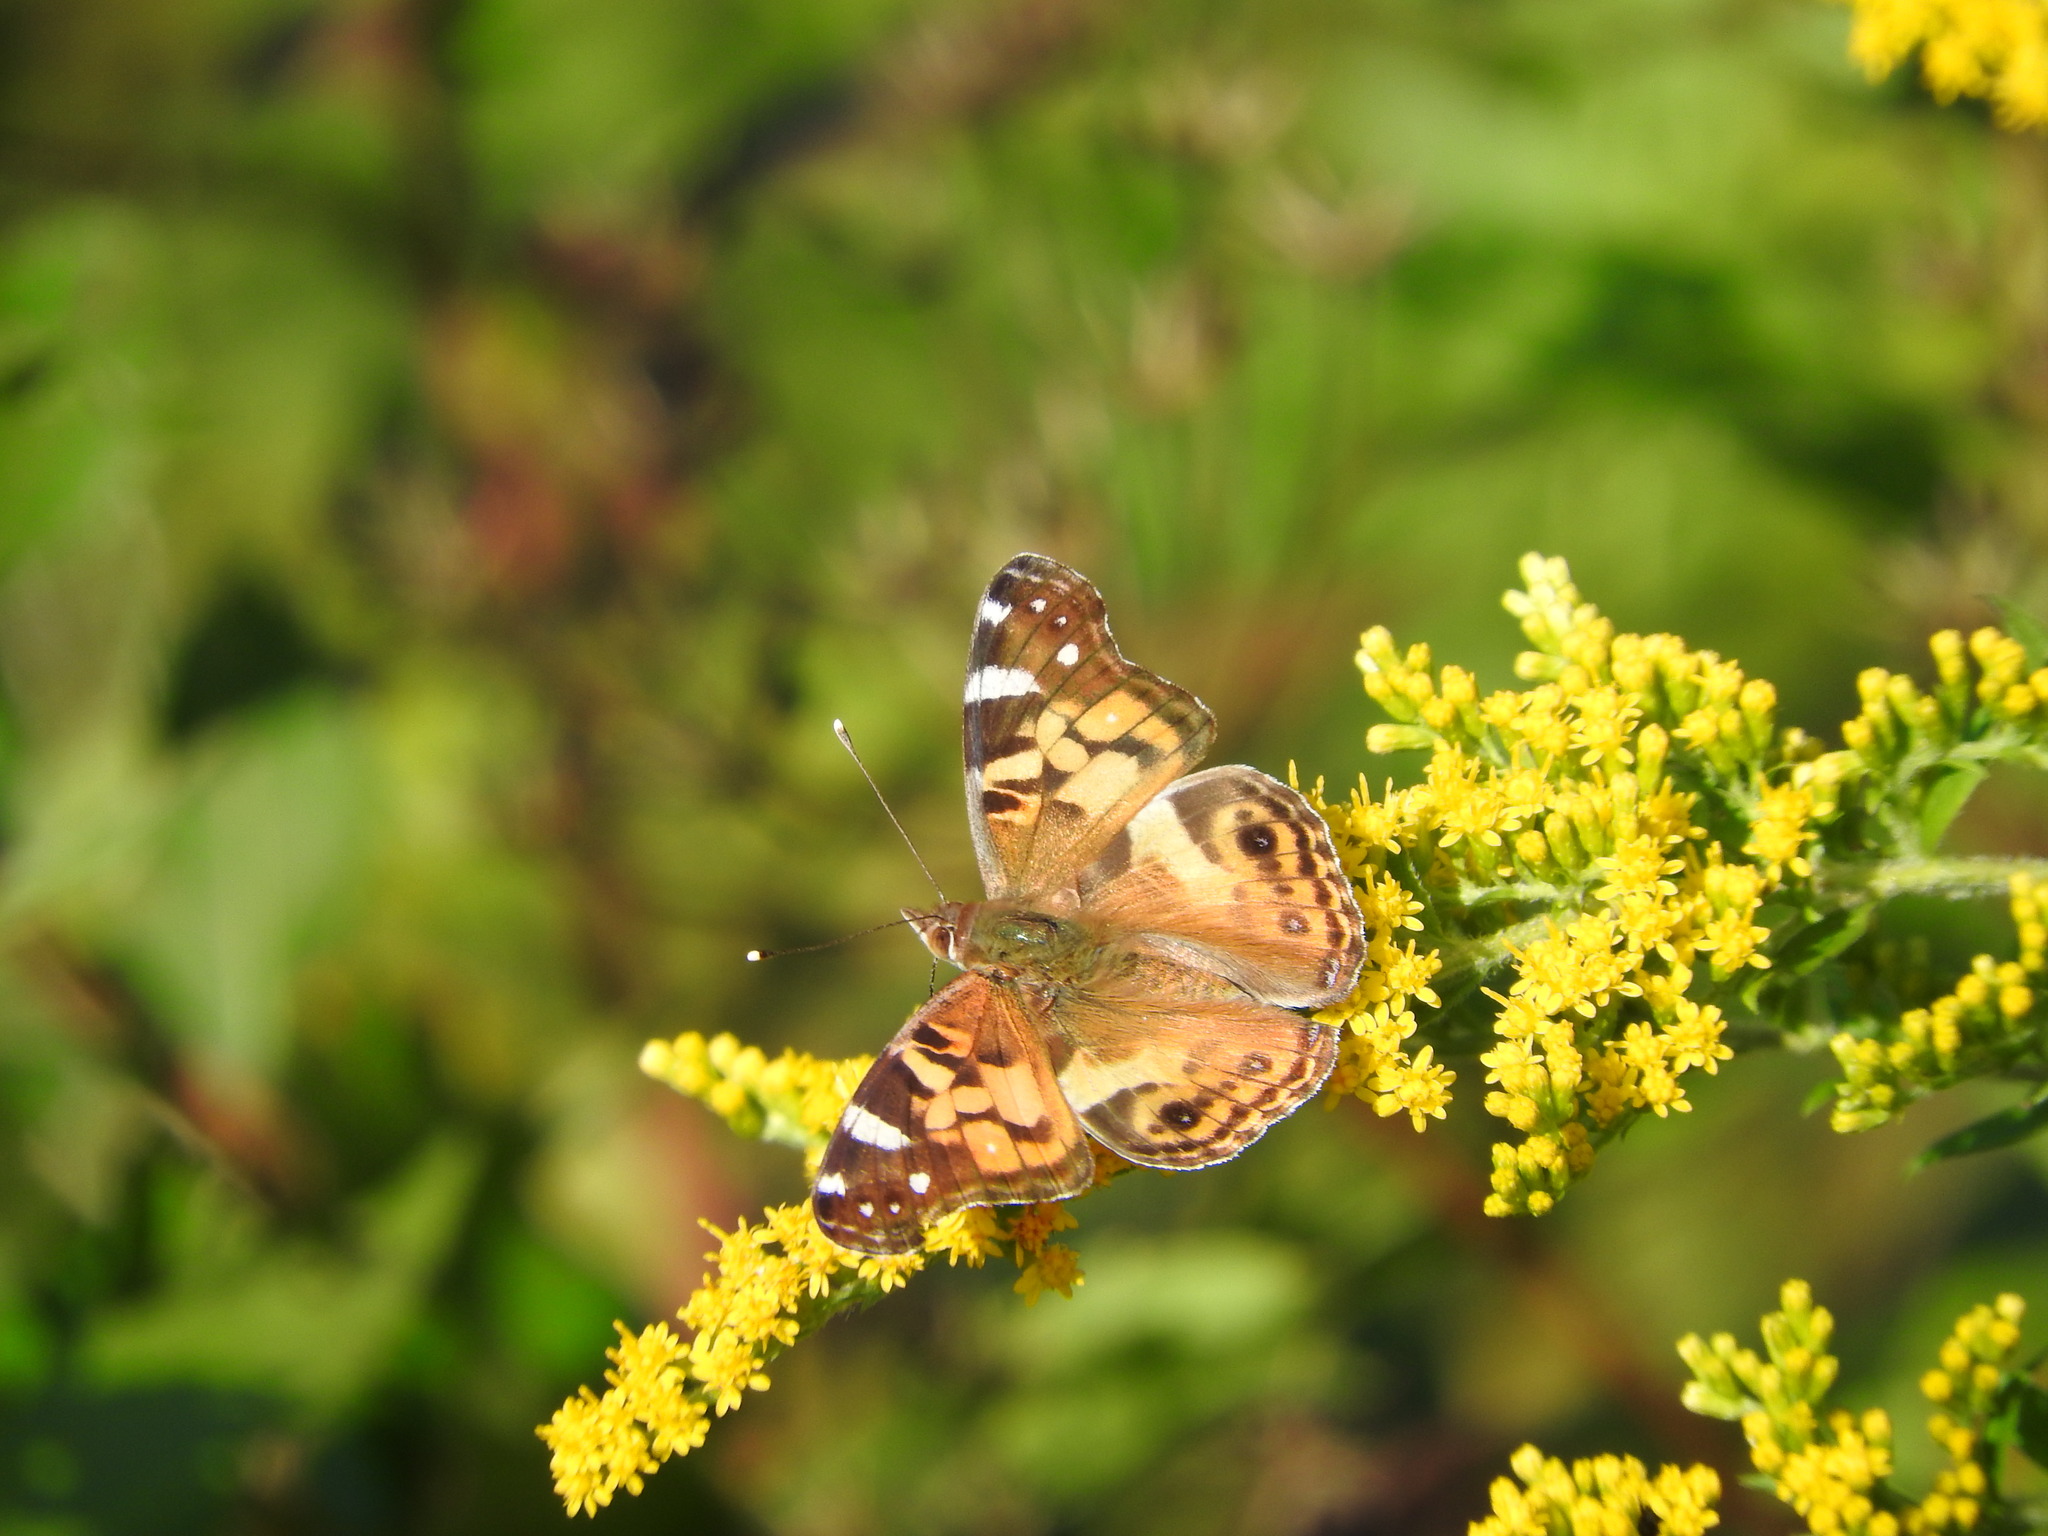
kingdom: Animalia
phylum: Arthropoda
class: Insecta
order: Lepidoptera
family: Nymphalidae
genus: Vanessa
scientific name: Vanessa virginiensis
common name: American lady
